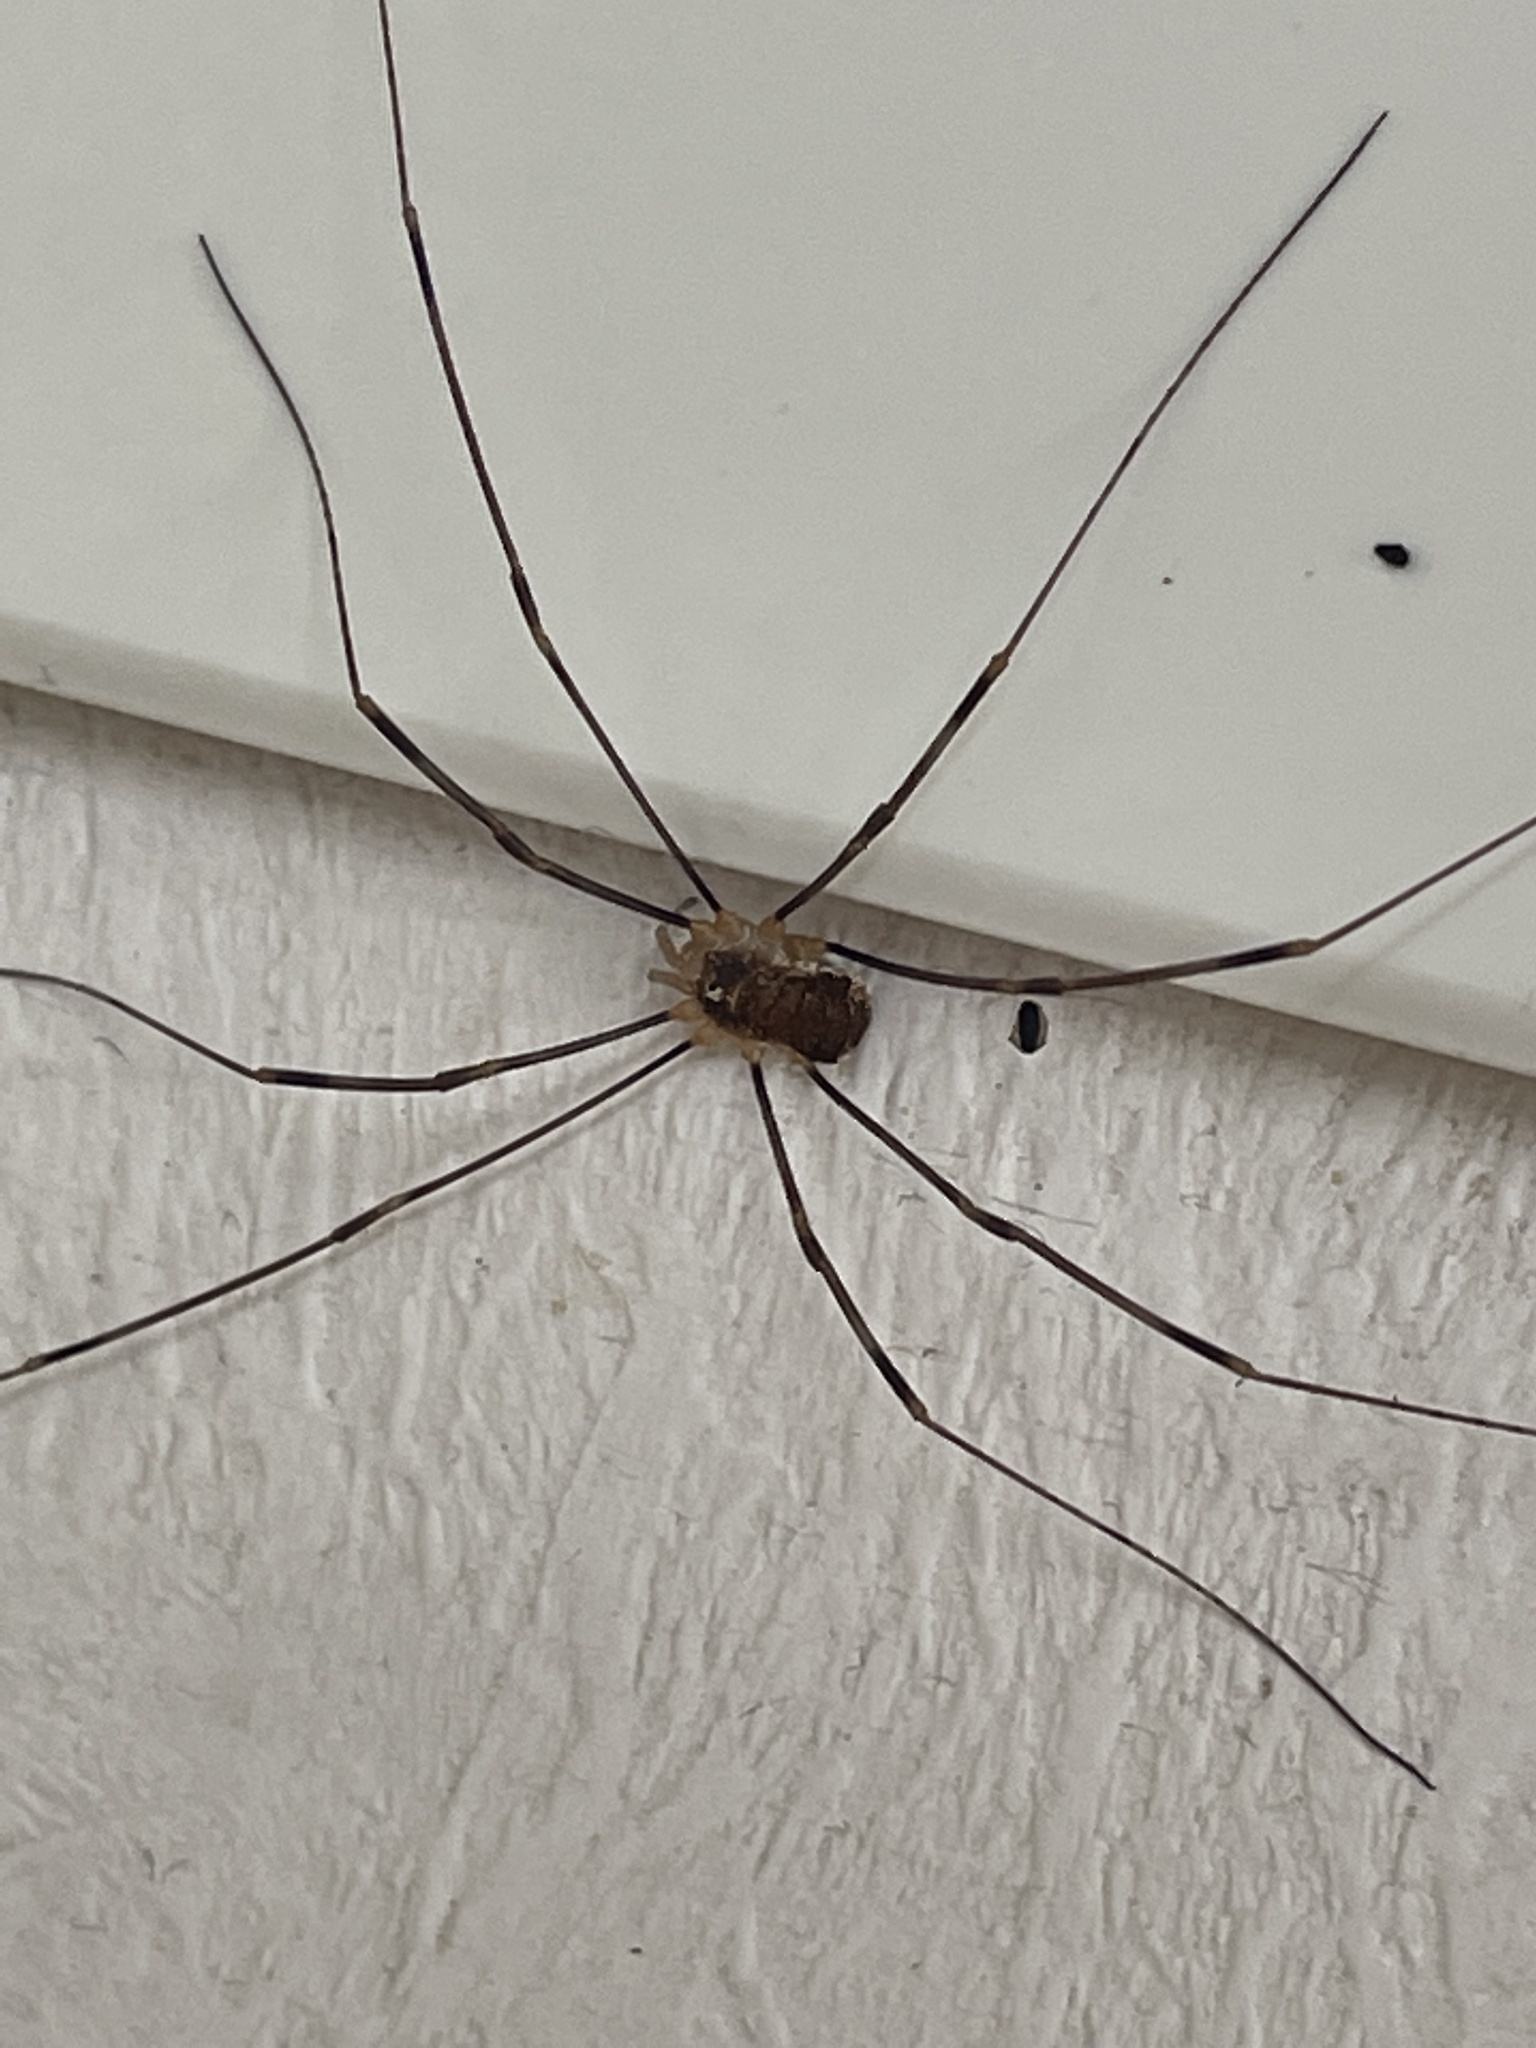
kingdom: Animalia
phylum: Arthropoda
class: Arachnida
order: Opiliones
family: Phalangiidae
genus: Opilio
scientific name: Opilio canestrinii
